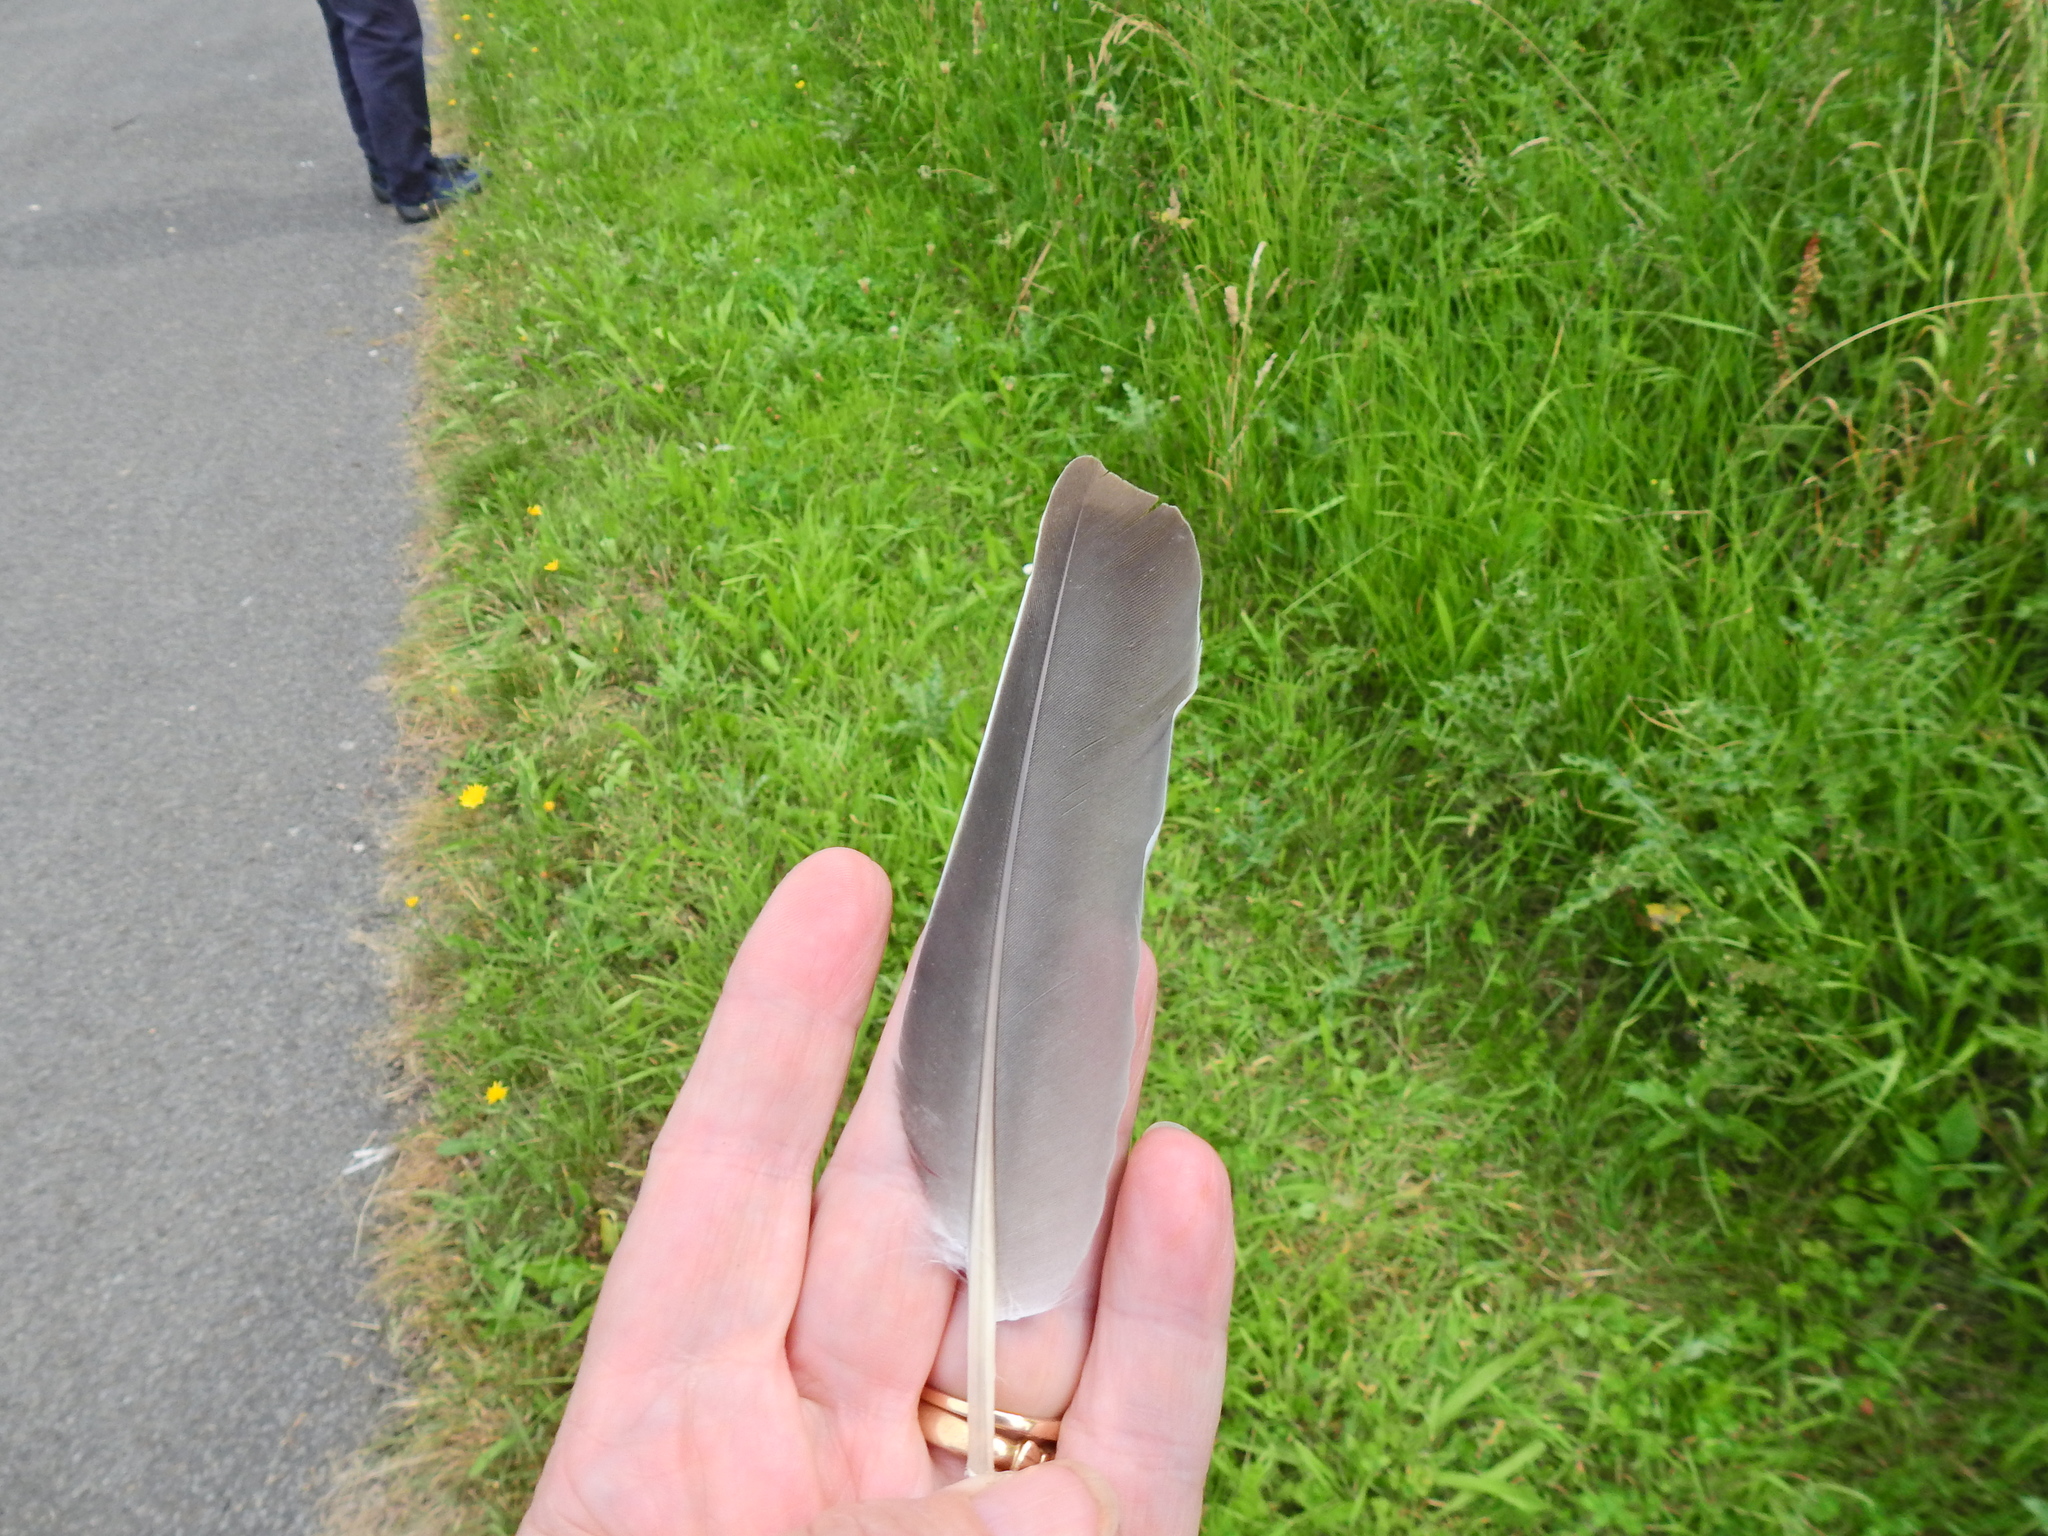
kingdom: Animalia
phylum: Chordata
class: Aves
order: Columbiformes
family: Columbidae
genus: Columba
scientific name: Columba palumbus
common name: Common wood pigeon
